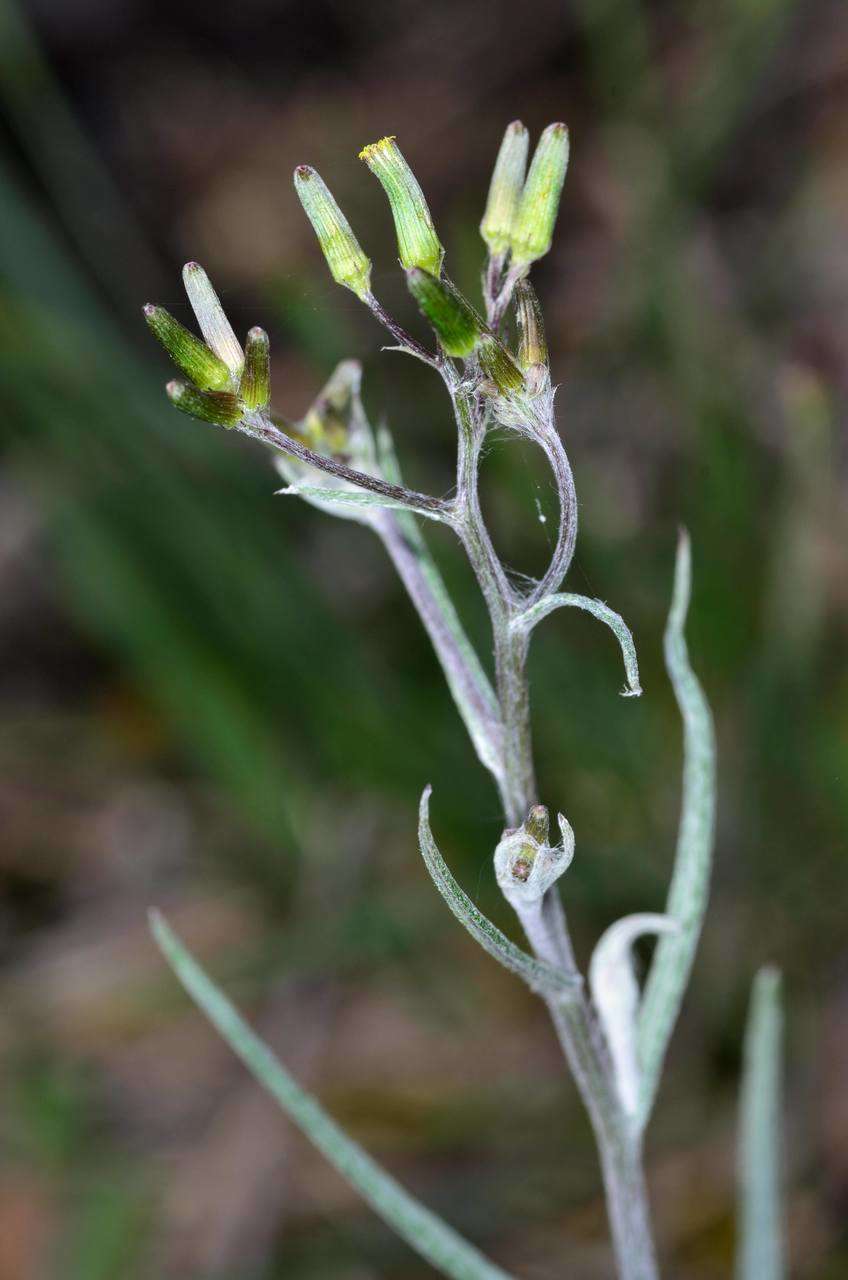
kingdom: Plantae
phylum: Tracheophyta
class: Magnoliopsida
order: Asterales
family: Asteraceae
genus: Senecio
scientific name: Senecio phelleus
